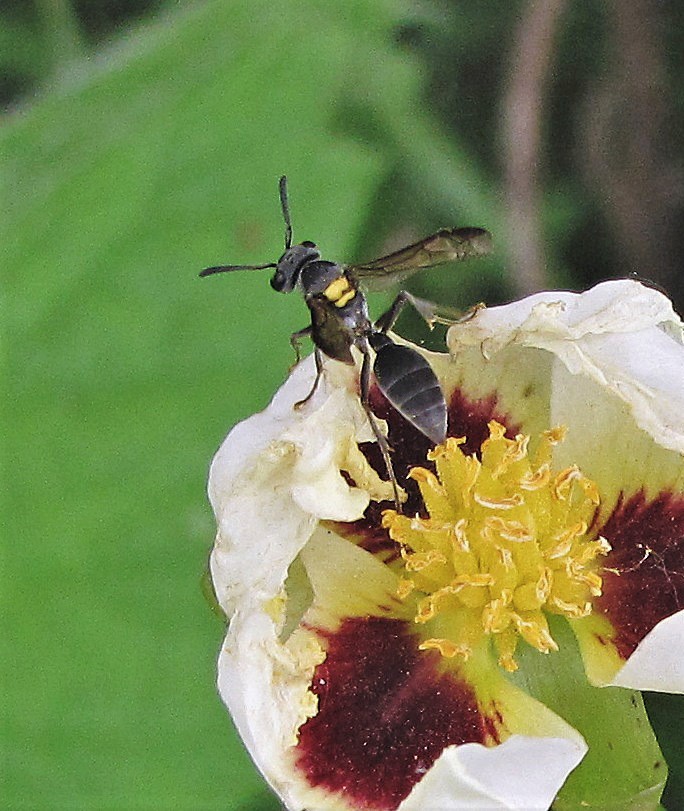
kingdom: Animalia
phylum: Arthropoda
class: Insecta
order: Hymenoptera
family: Eumenidae
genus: Polybia
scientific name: Polybia scutellaris
